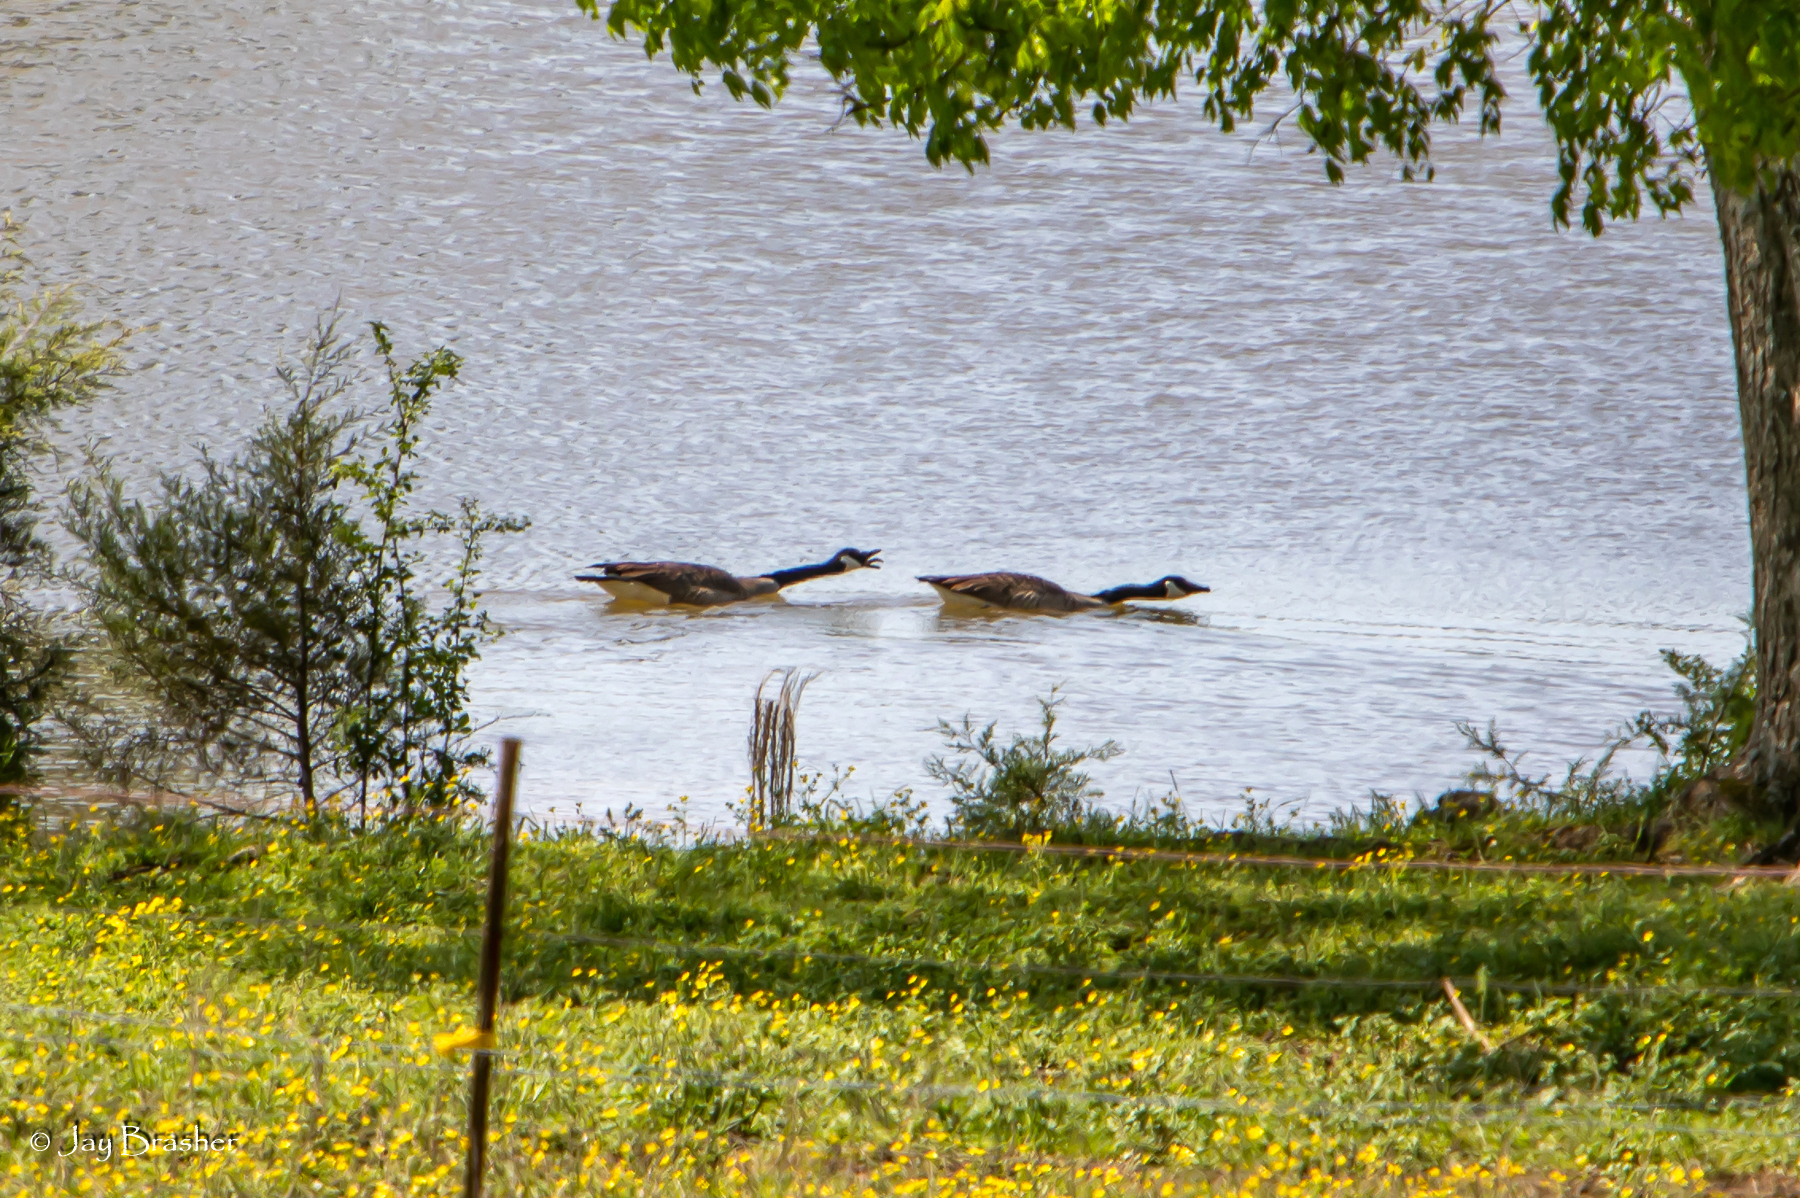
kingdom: Animalia
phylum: Chordata
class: Aves
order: Anseriformes
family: Anatidae
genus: Branta
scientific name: Branta canadensis
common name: Canada goose
